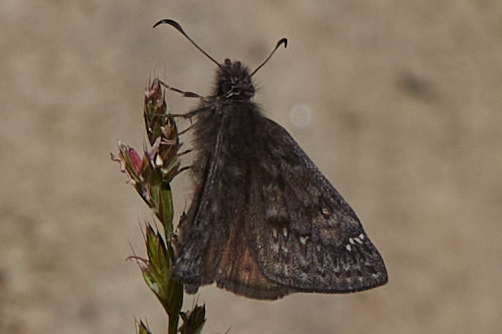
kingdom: Animalia
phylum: Arthropoda
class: Insecta
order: Lepidoptera
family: Hesperiidae
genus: Erynnis
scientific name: Erynnis propertius
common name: Propertius duskywing
